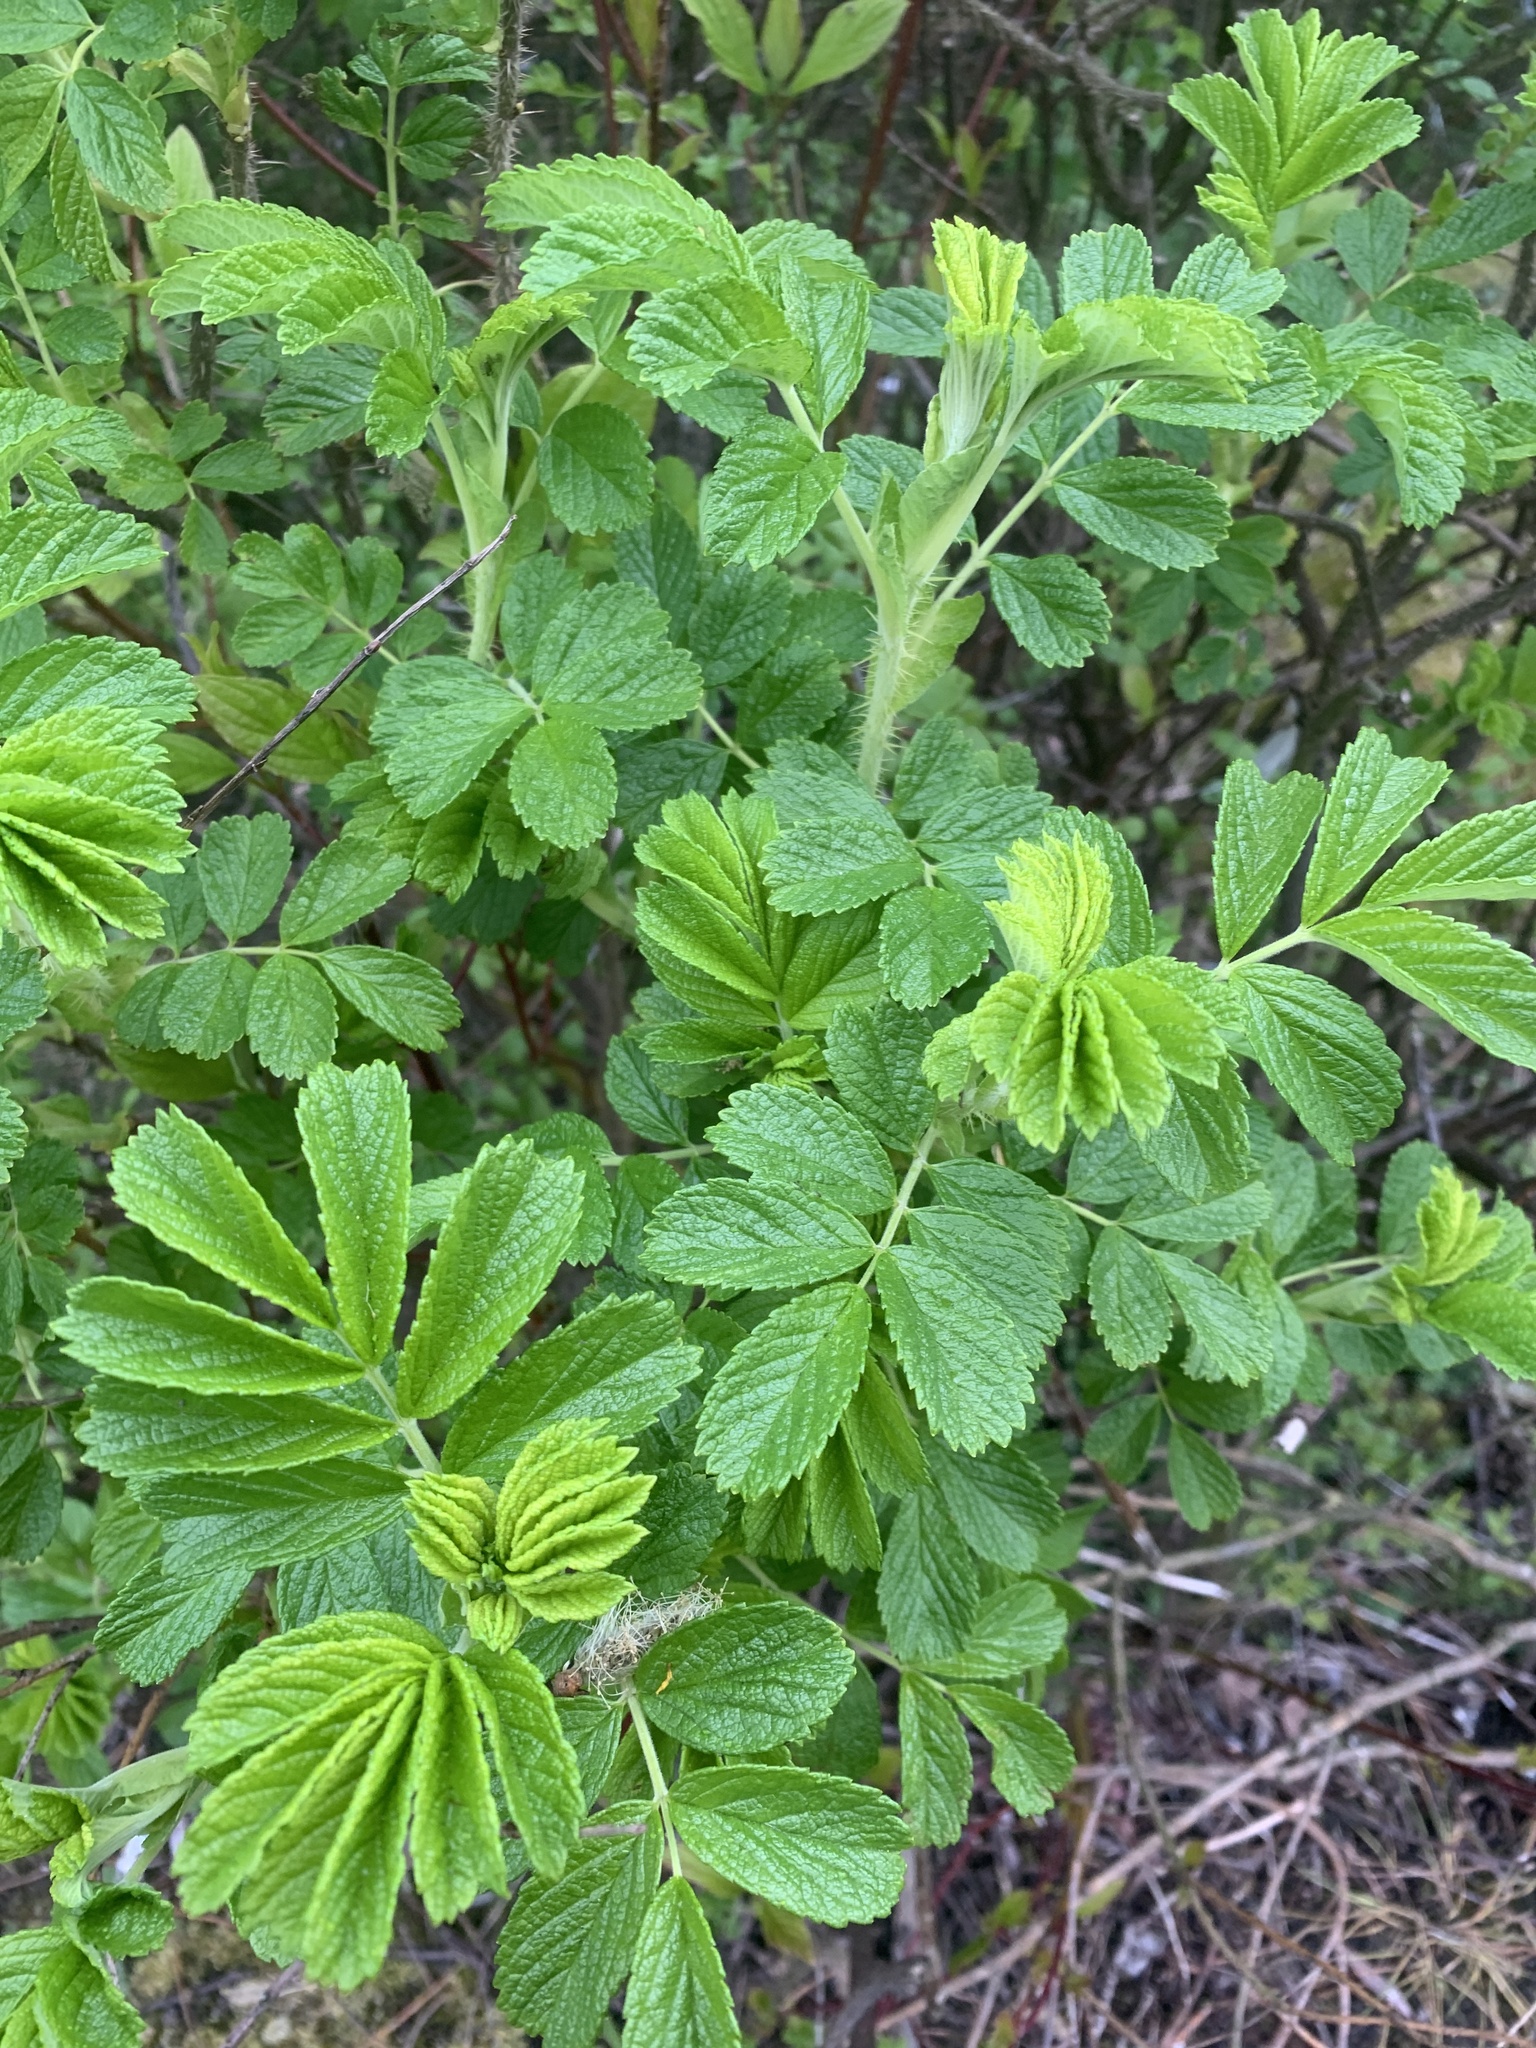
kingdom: Plantae
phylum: Tracheophyta
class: Magnoliopsida
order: Rosales
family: Rosaceae
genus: Rosa
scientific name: Rosa rugosa
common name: Japanese rose
